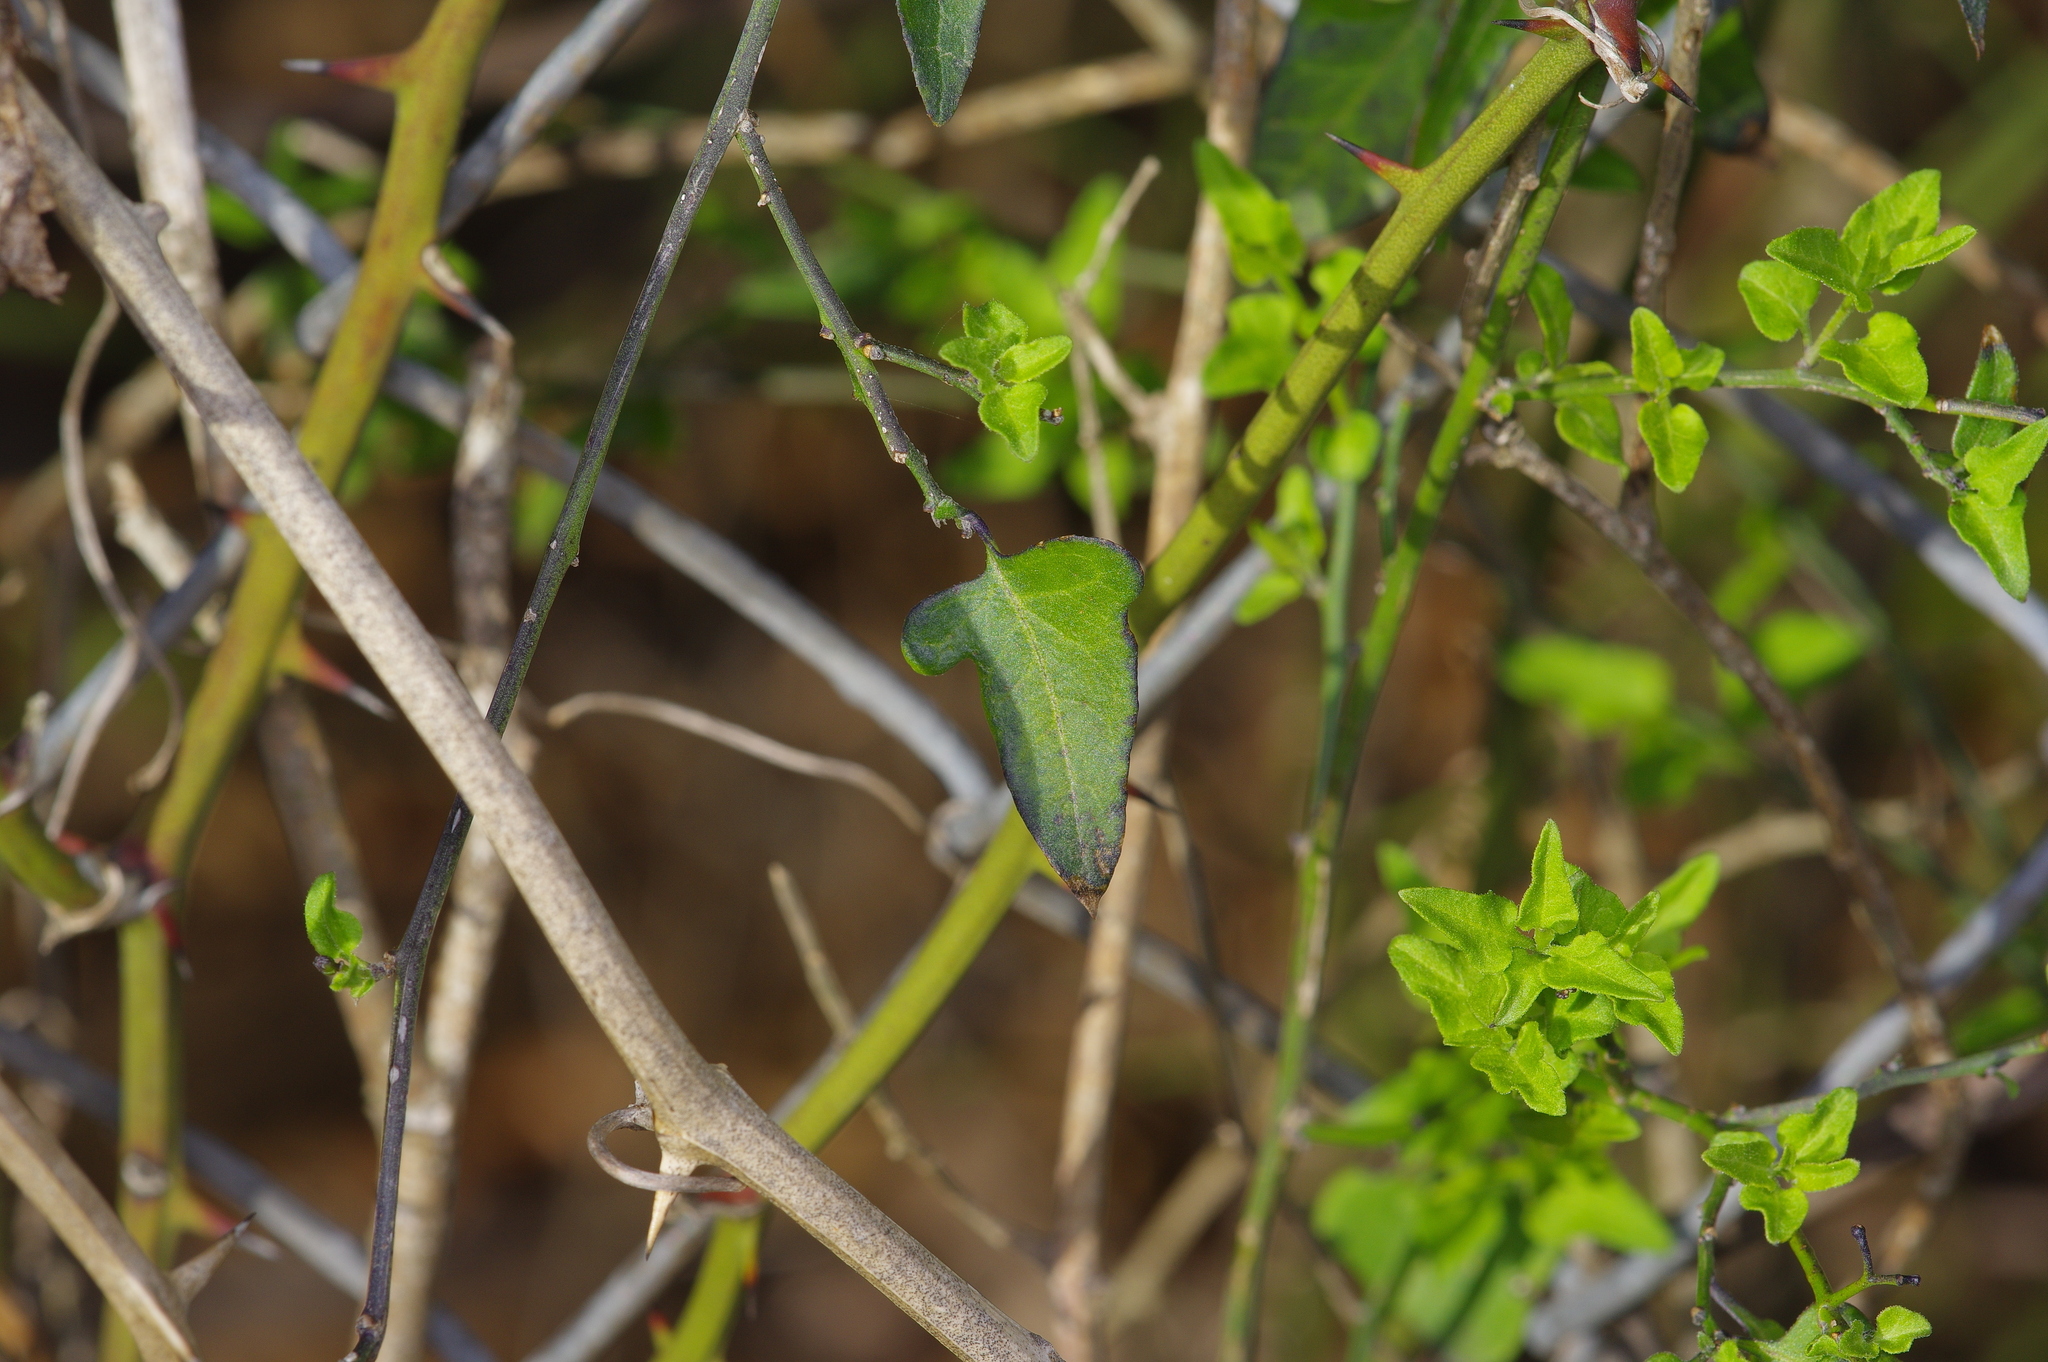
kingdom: Plantae
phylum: Tracheophyta
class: Magnoliopsida
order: Solanales
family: Solanaceae
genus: Solanum
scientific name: Solanum triquetrum
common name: Texas nightshade
